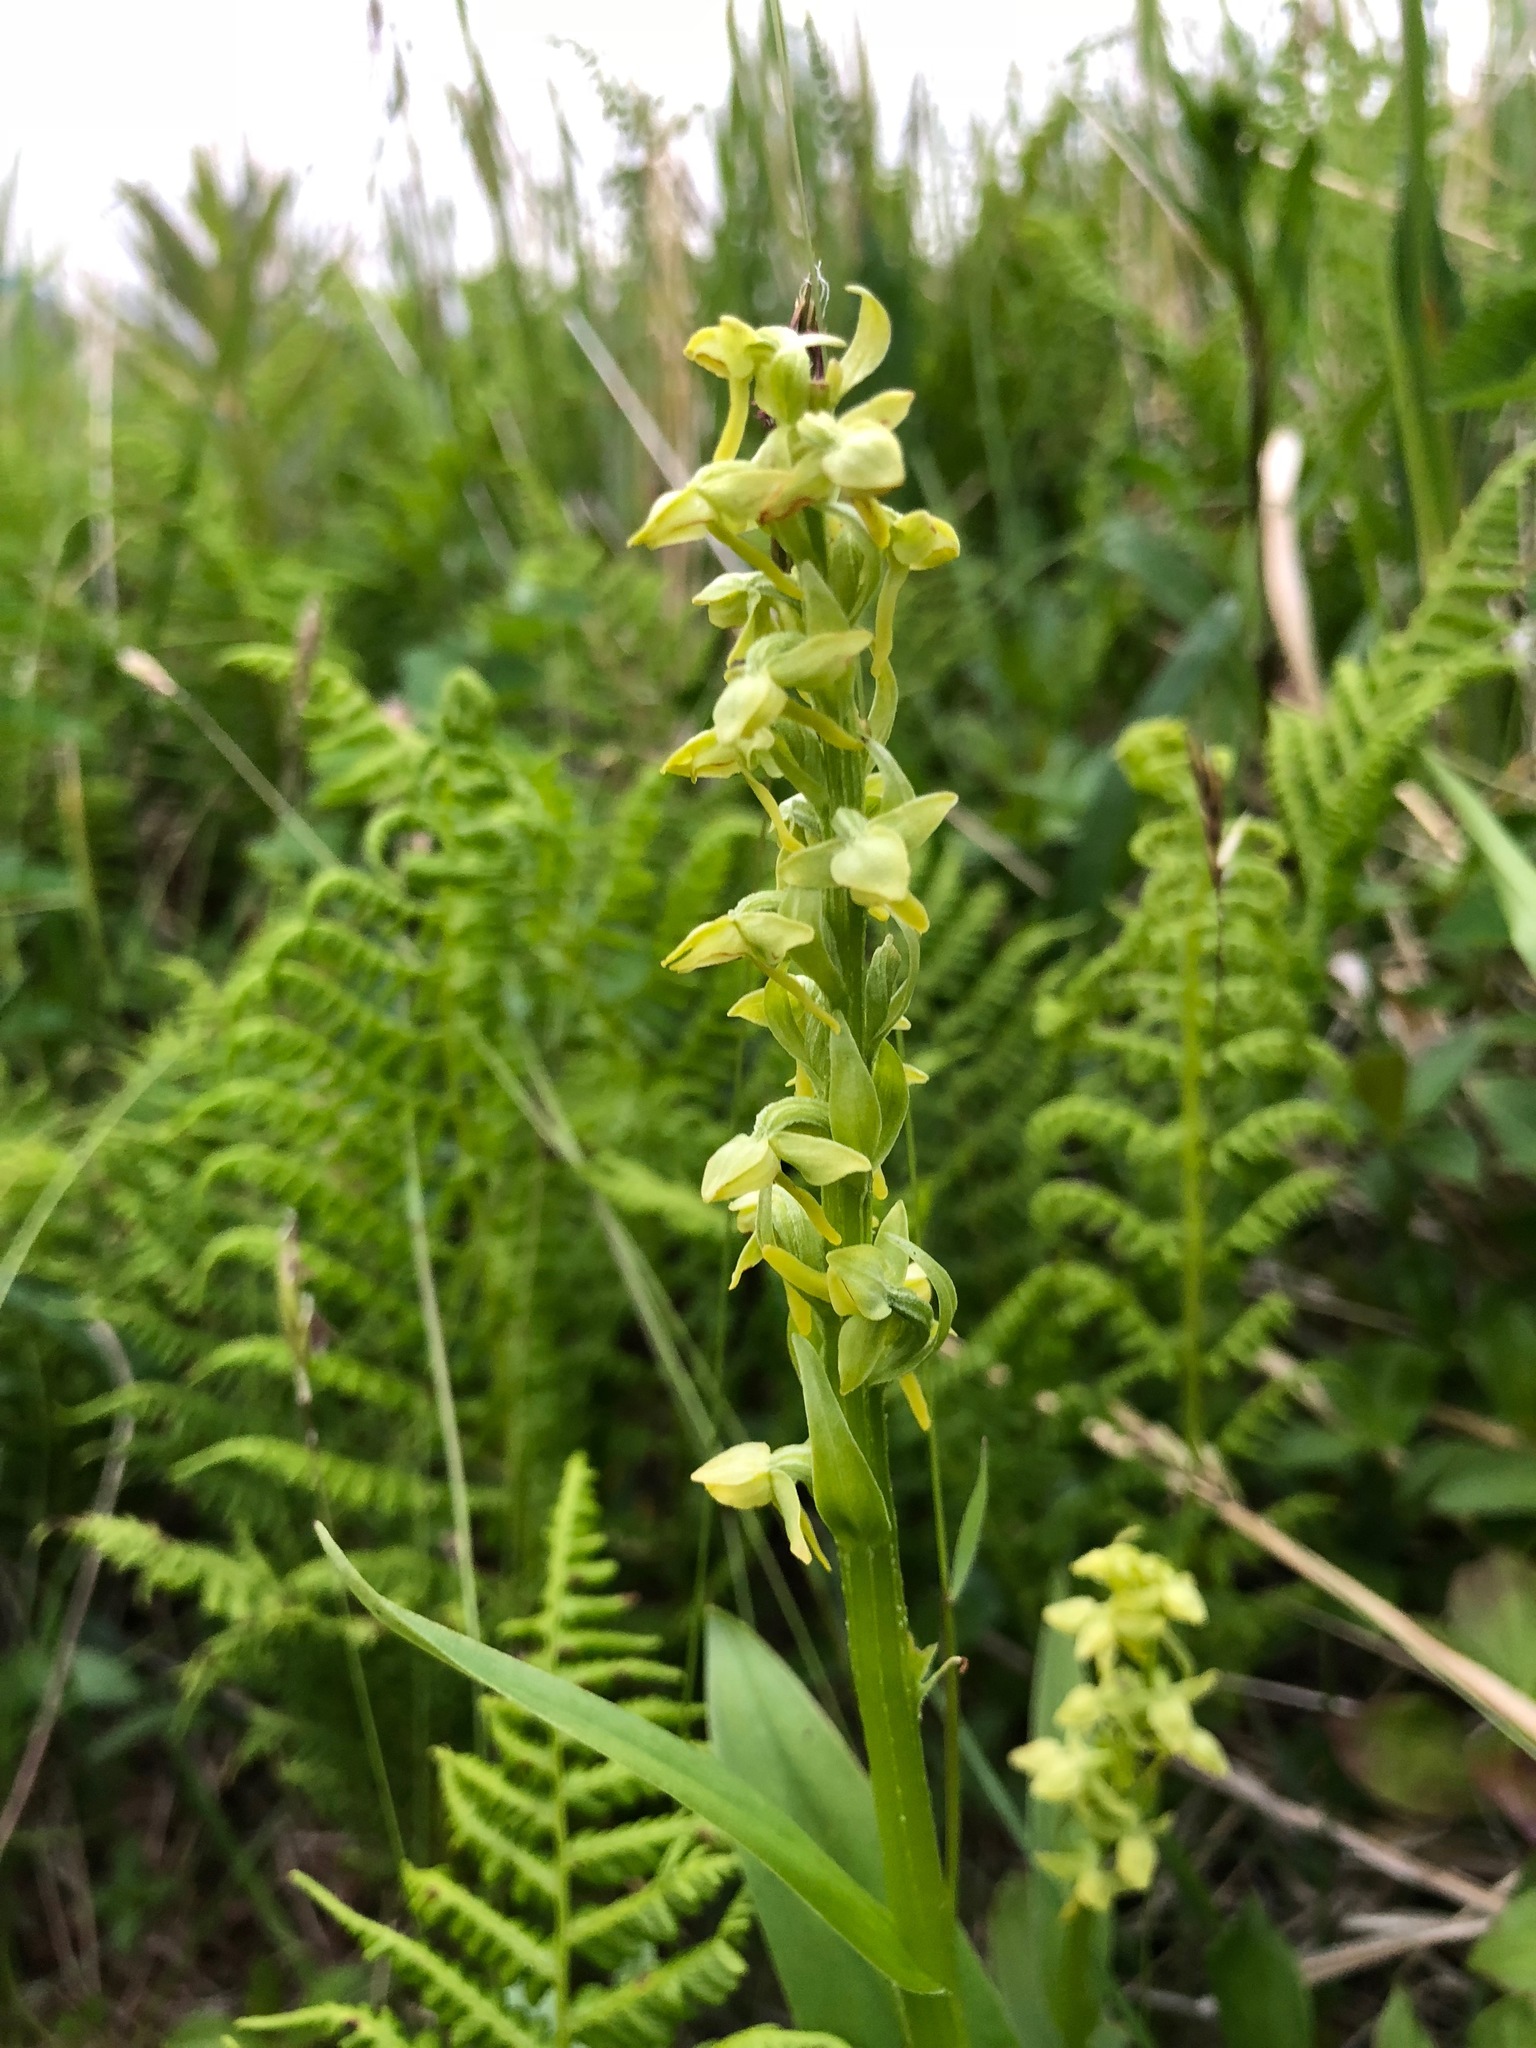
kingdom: Plantae
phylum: Tracheophyta
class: Liliopsida
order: Asparagales
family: Orchidaceae
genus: Platanthera
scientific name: Platanthera stricta
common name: Slender bog orchid
